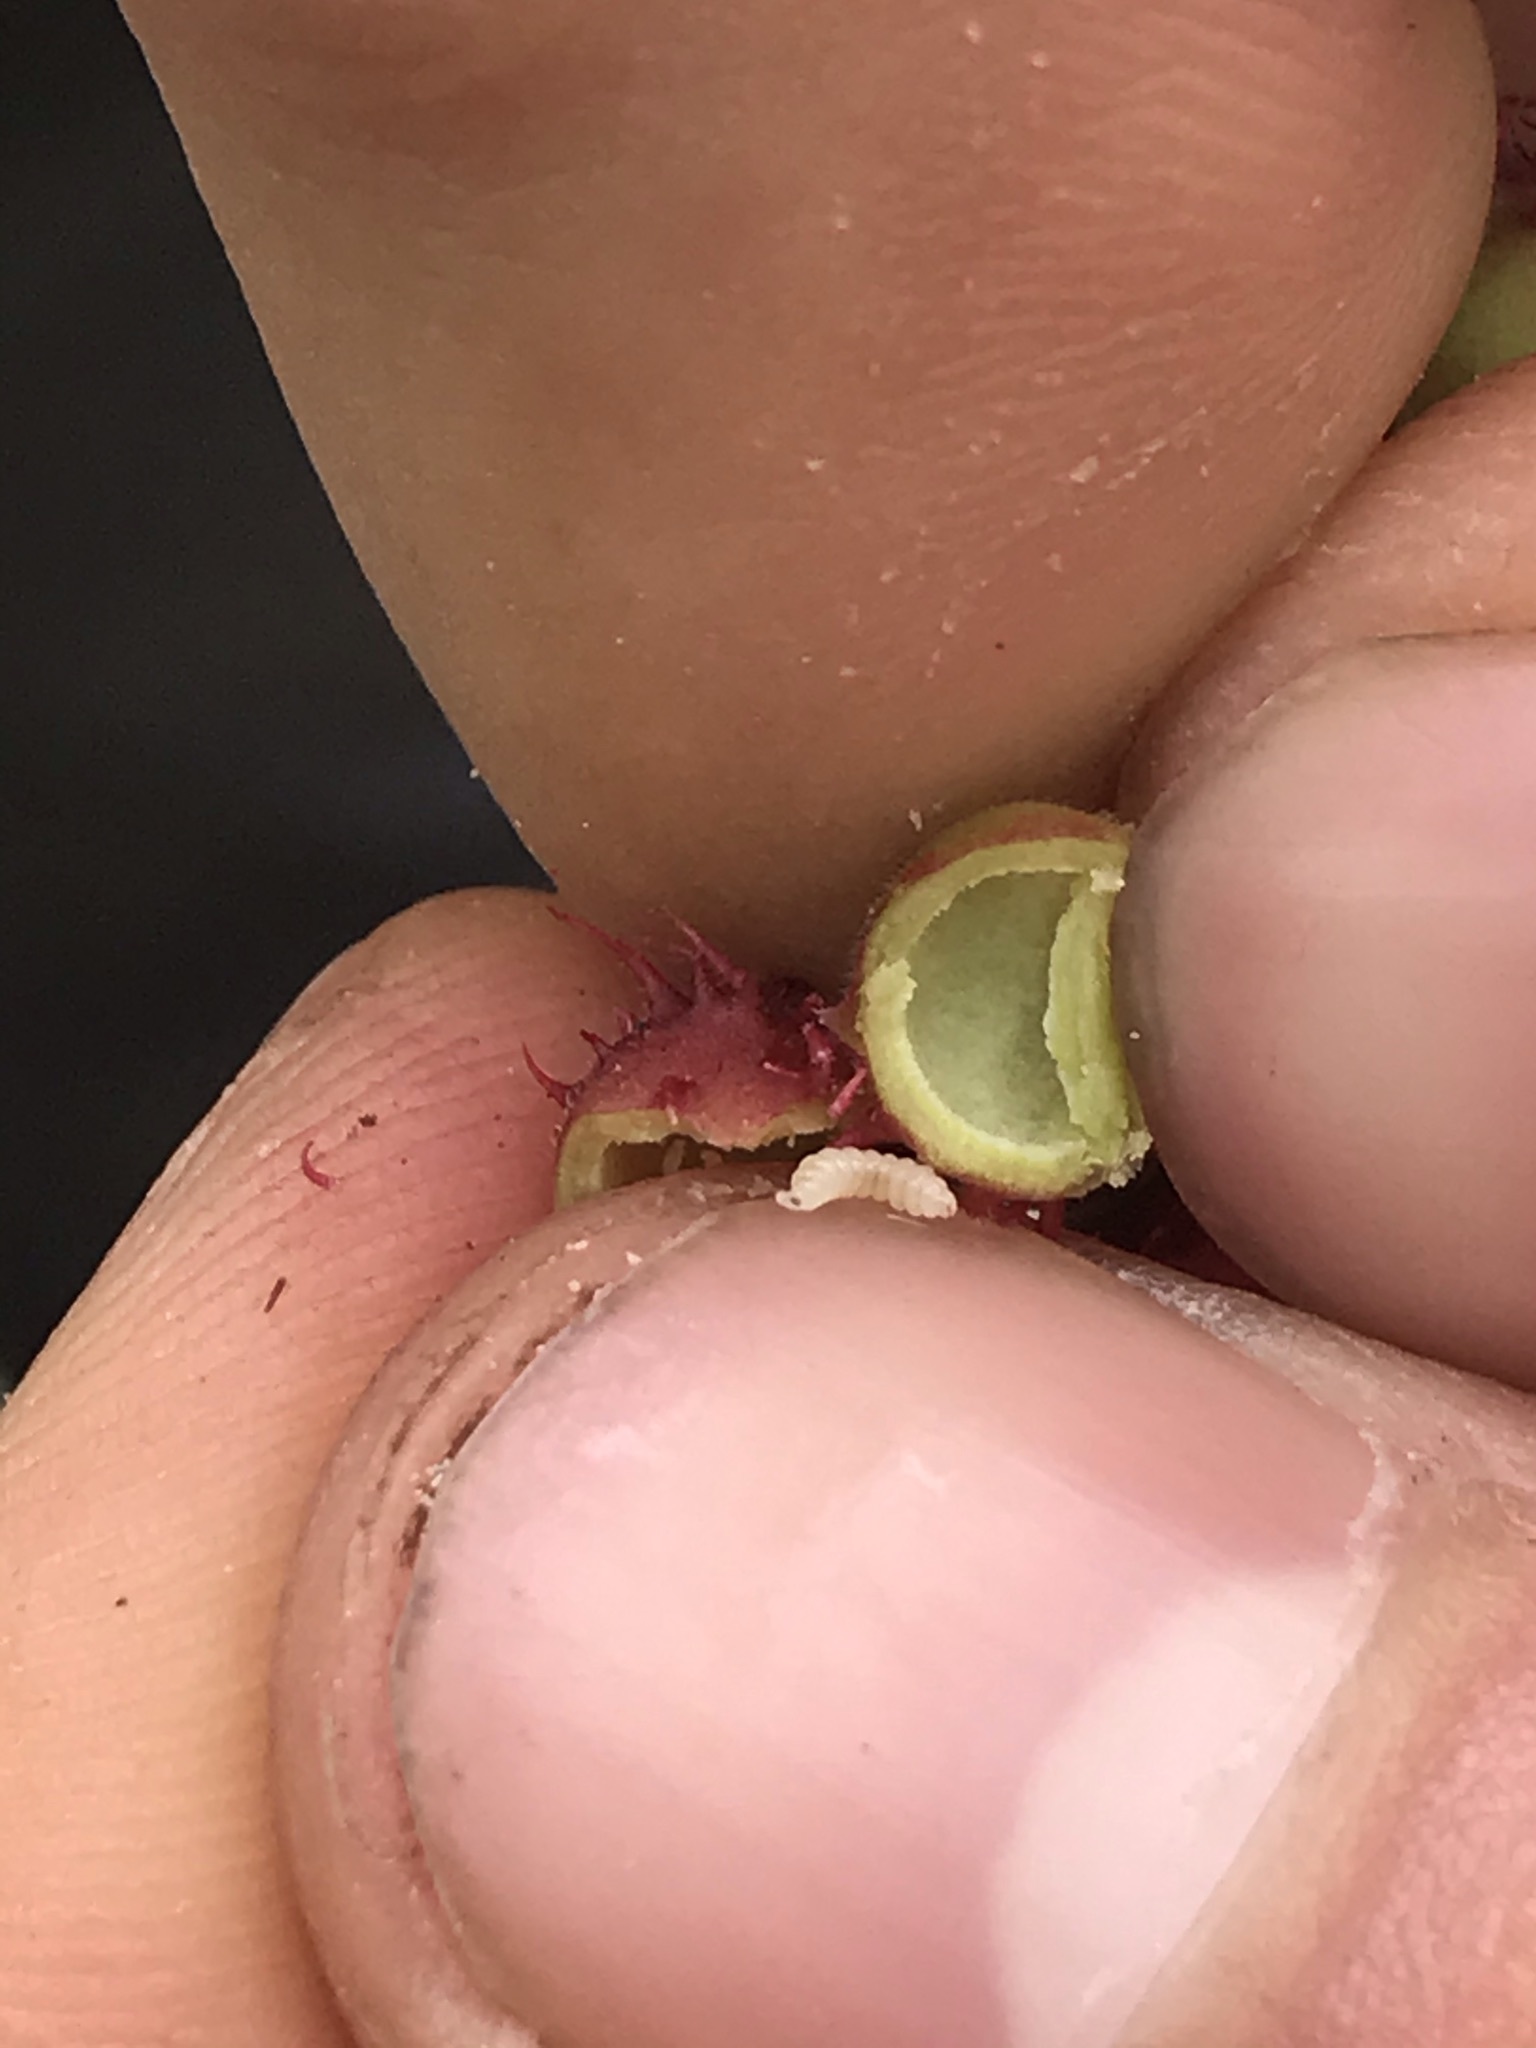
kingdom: Animalia
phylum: Arthropoda
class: Insecta
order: Hymenoptera
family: Cynipidae
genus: Diplolepis
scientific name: Diplolepis polita
